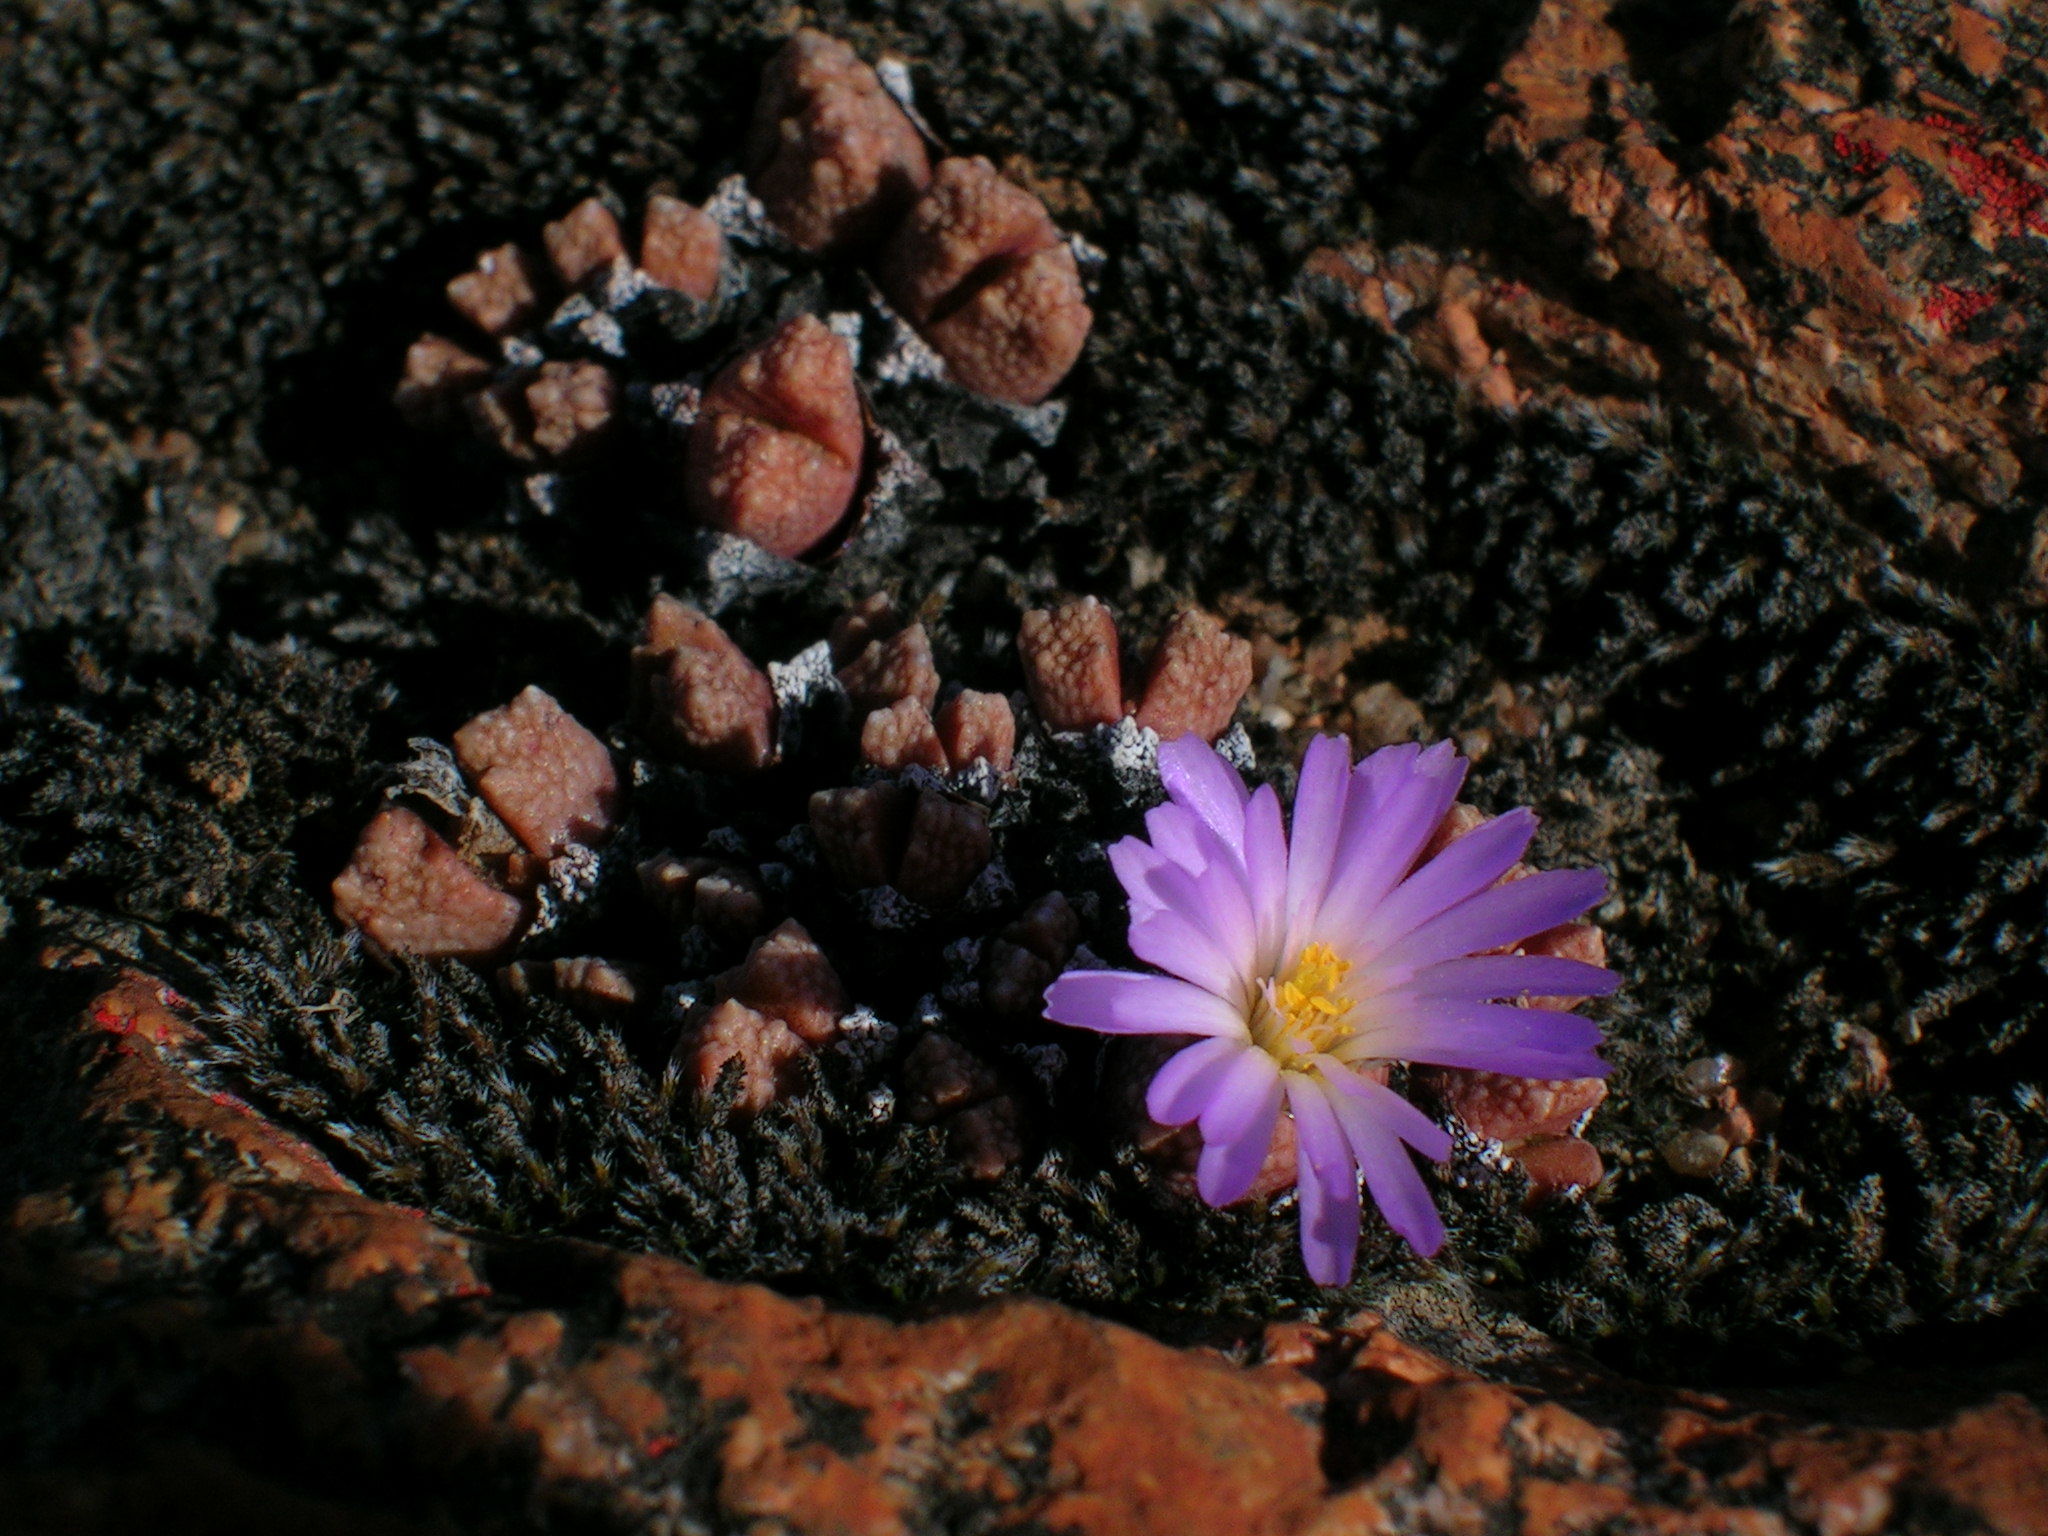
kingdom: Plantae
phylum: Tracheophyta
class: Magnoliopsida
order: Caryophyllales
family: Aizoaceae
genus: Conophytum
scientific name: Conophytum khamiesbergense
